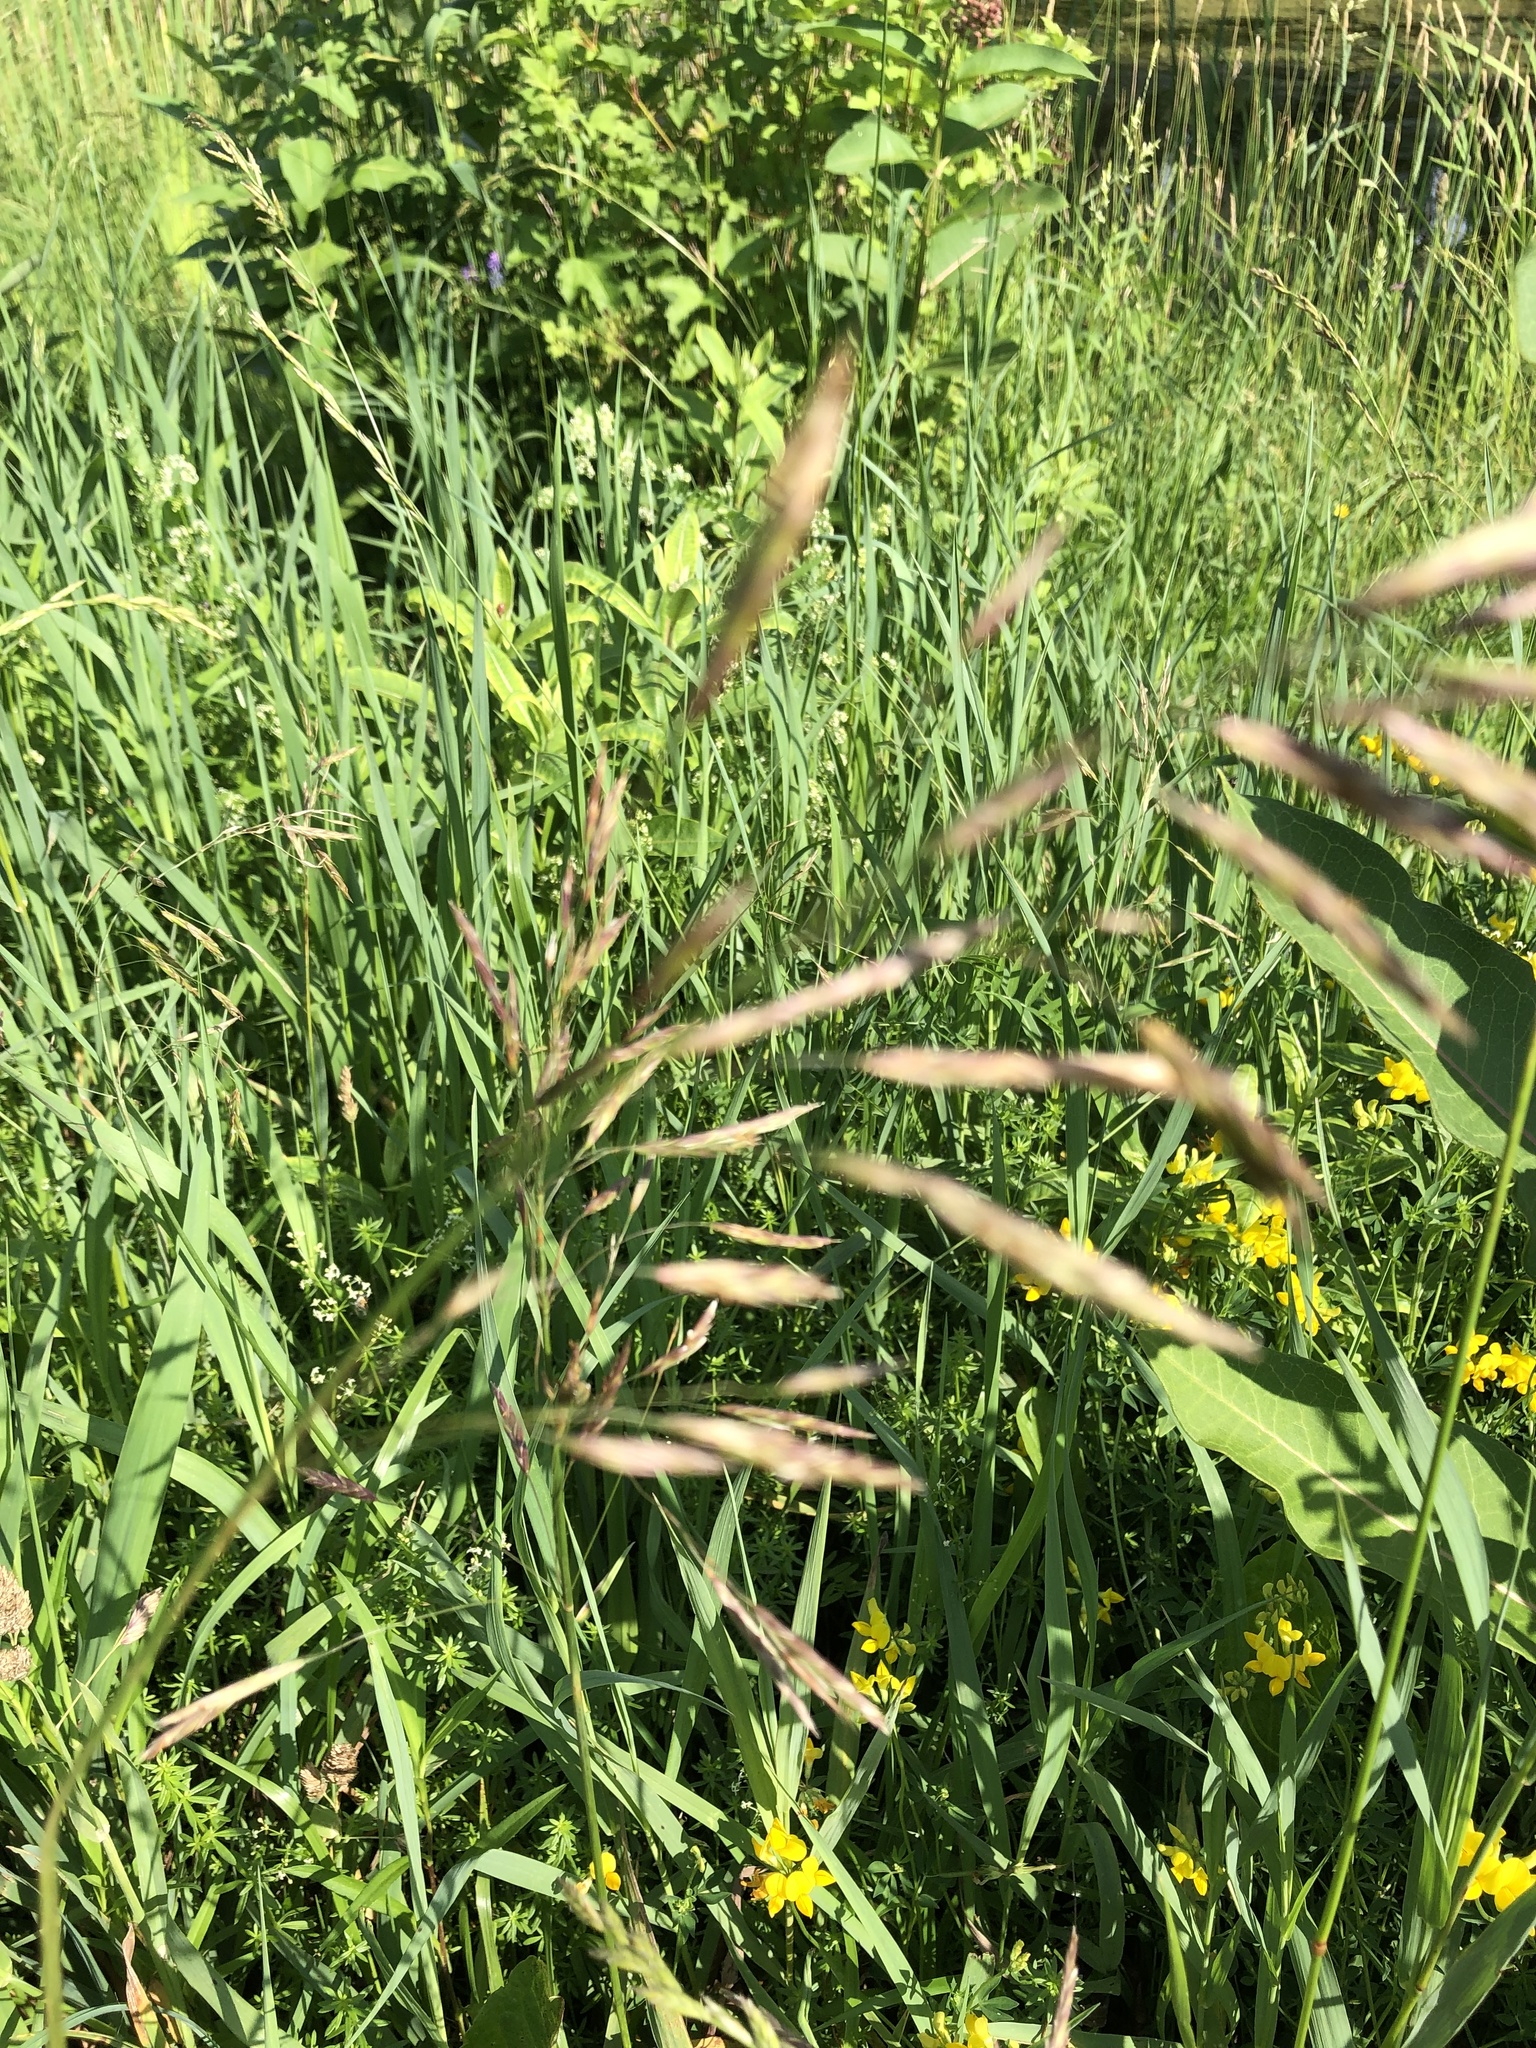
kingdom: Plantae
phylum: Tracheophyta
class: Liliopsida
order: Poales
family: Poaceae
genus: Bromus
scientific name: Bromus inermis
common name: Smooth brome
